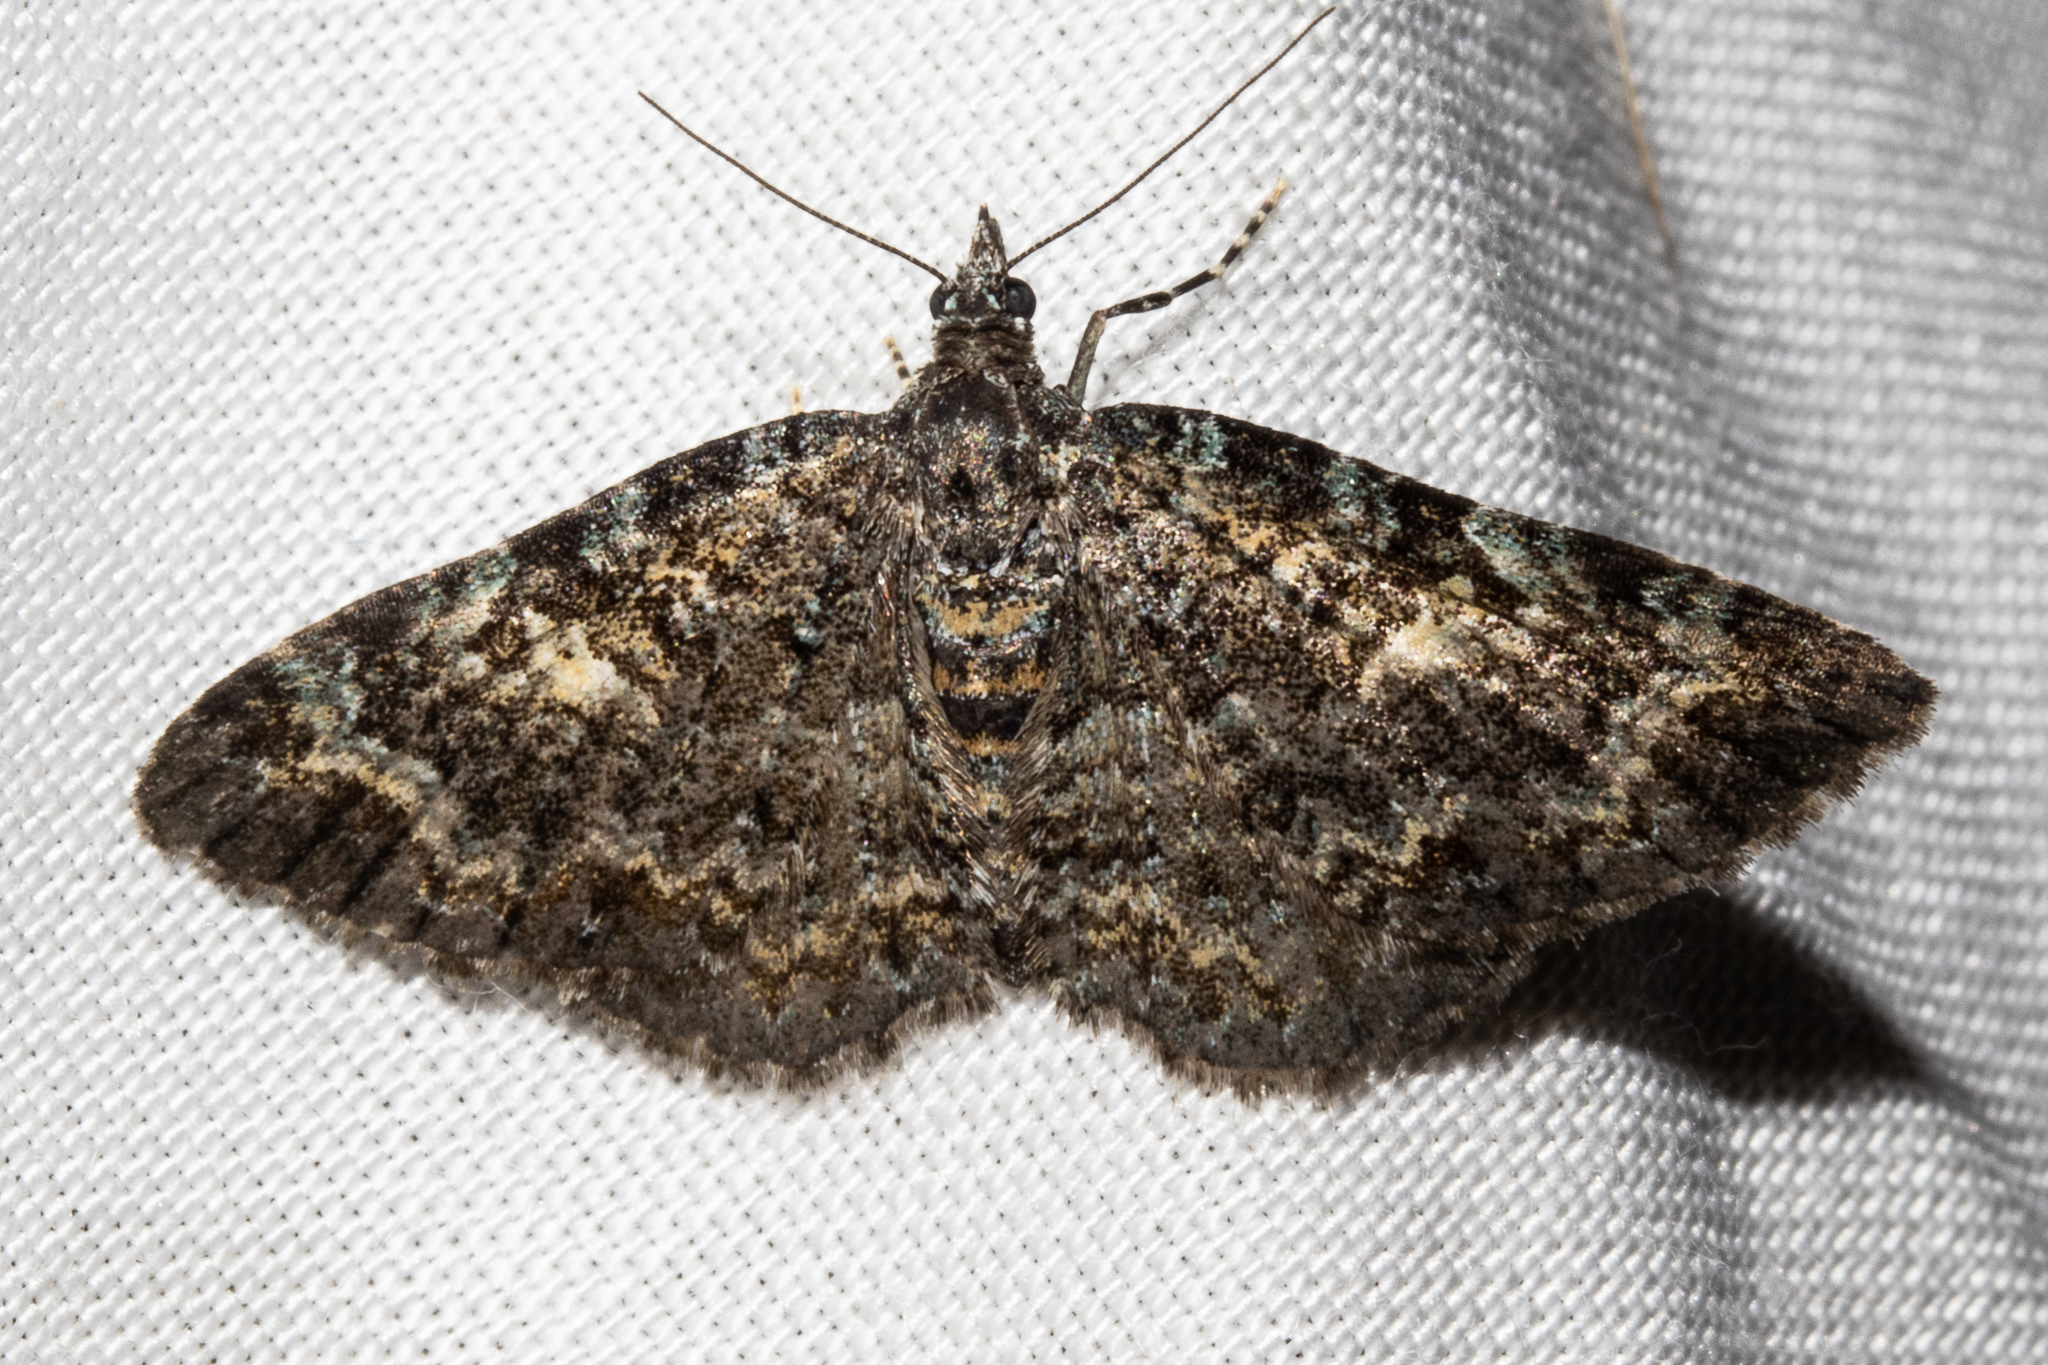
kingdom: Animalia
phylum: Arthropoda
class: Insecta
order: Lepidoptera
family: Geometridae
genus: Pasiphila
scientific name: Pasiphila rubella
